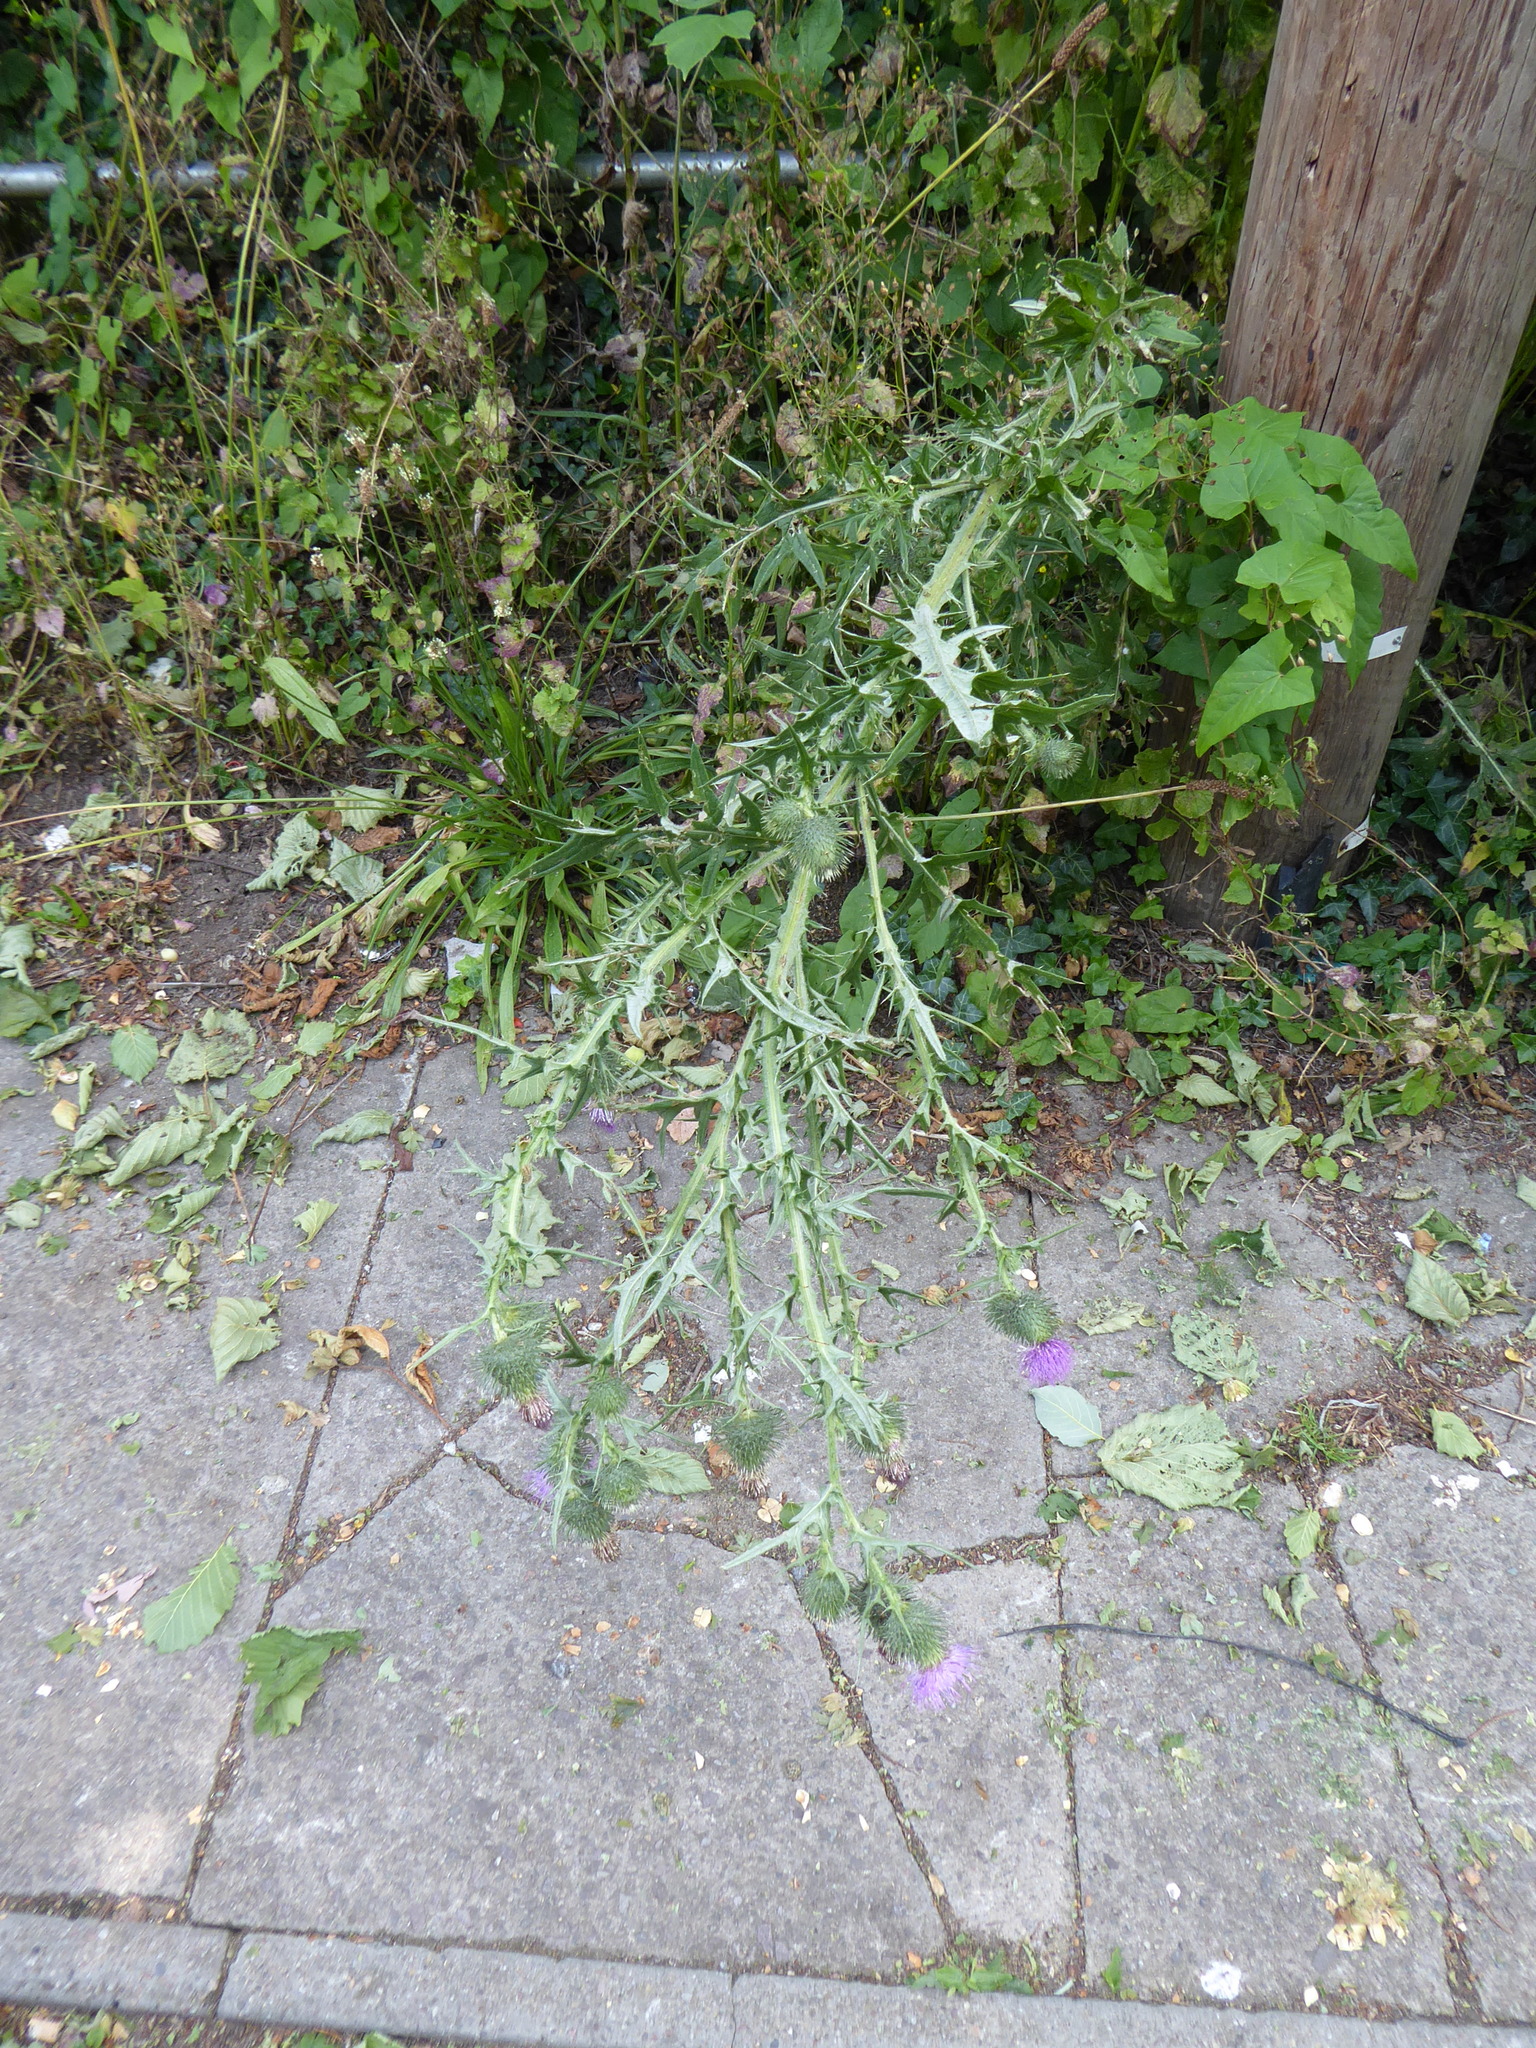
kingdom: Plantae
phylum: Tracheophyta
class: Magnoliopsida
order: Asterales
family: Asteraceae
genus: Cirsium
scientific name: Cirsium vulgare
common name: Bull thistle
